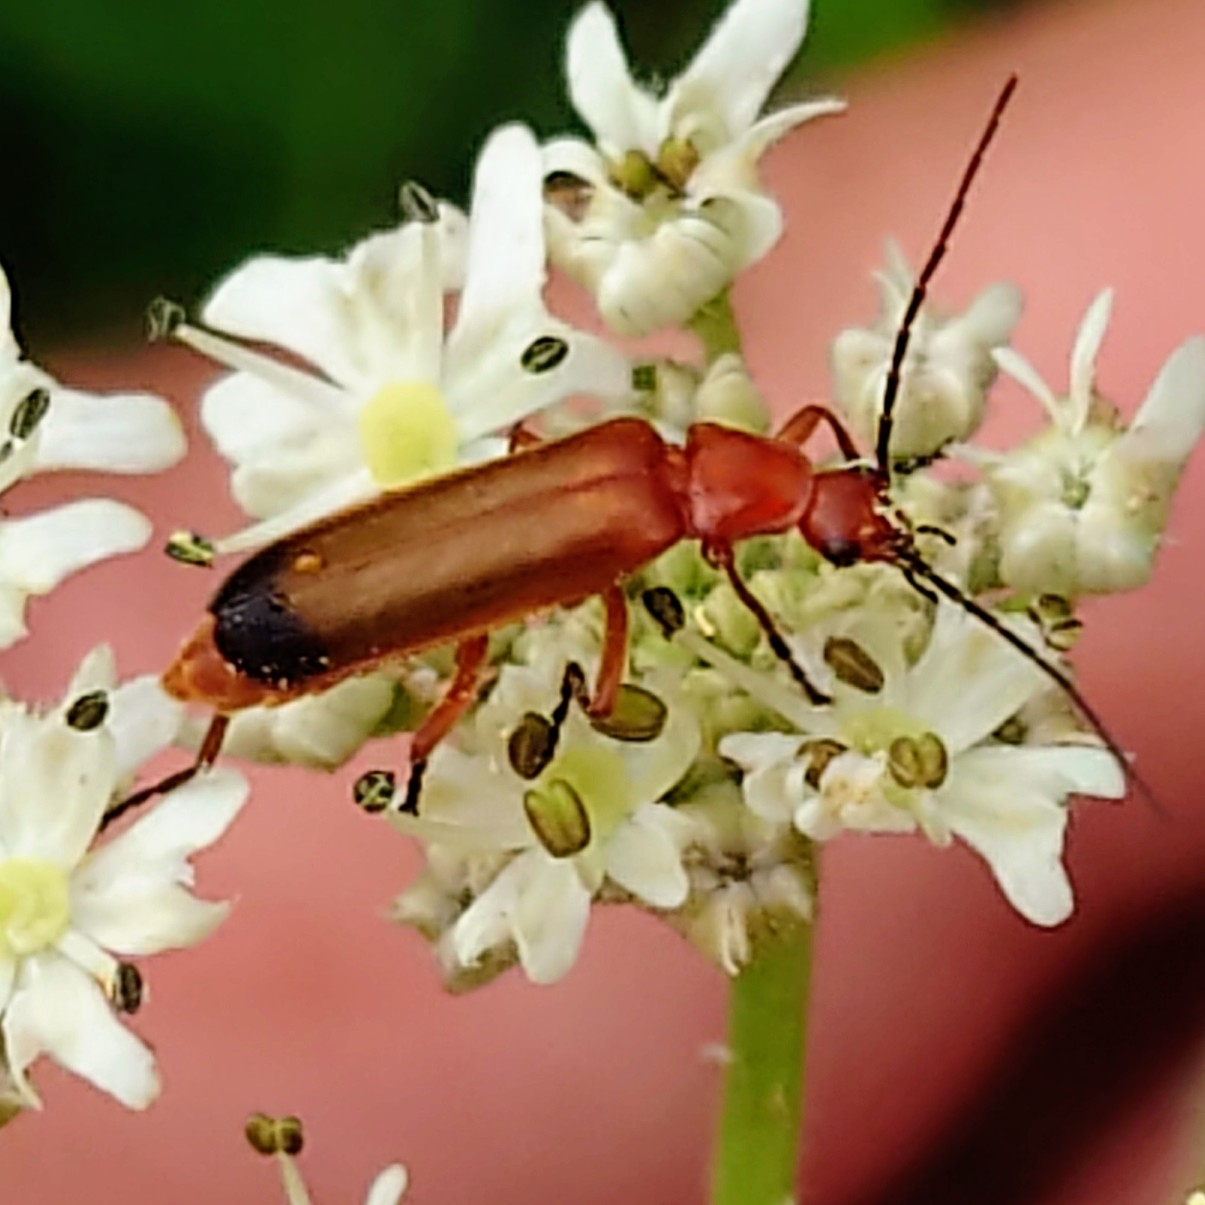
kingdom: Animalia
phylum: Arthropoda
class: Insecta
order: Coleoptera
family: Cantharidae
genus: Rhagonycha
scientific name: Rhagonycha fulva
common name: Common red soldier beetle
